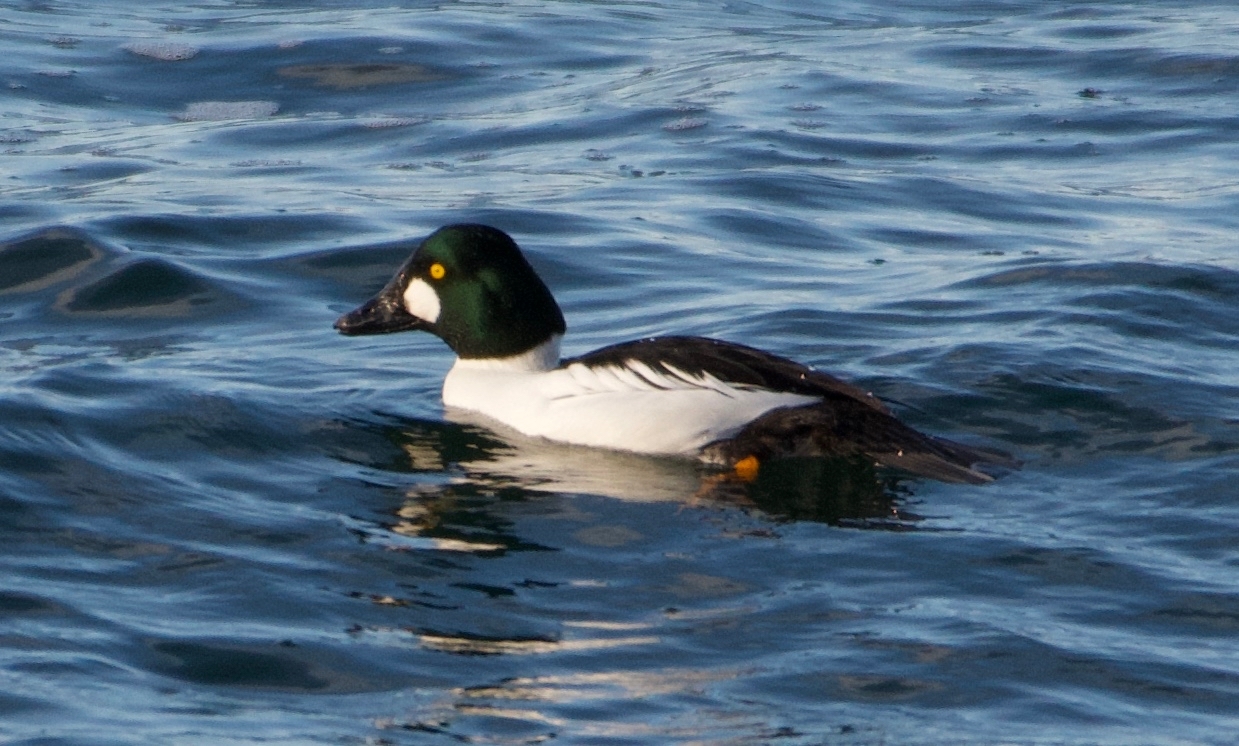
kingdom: Animalia
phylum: Chordata
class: Aves
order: Anseriformes
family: Anatidae
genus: Bucephala
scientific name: Bucephala clangula
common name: Common goldeneye
